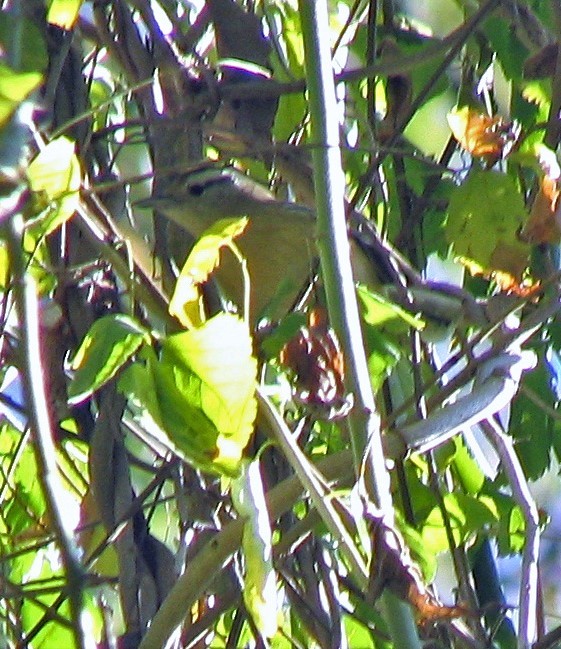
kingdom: Animalia
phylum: Chordata
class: Aves
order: Passeriformes
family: Thamnophilidae
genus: Herpsilochmus
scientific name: Herpsilochmus atricapillus
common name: Black-capped antwren
